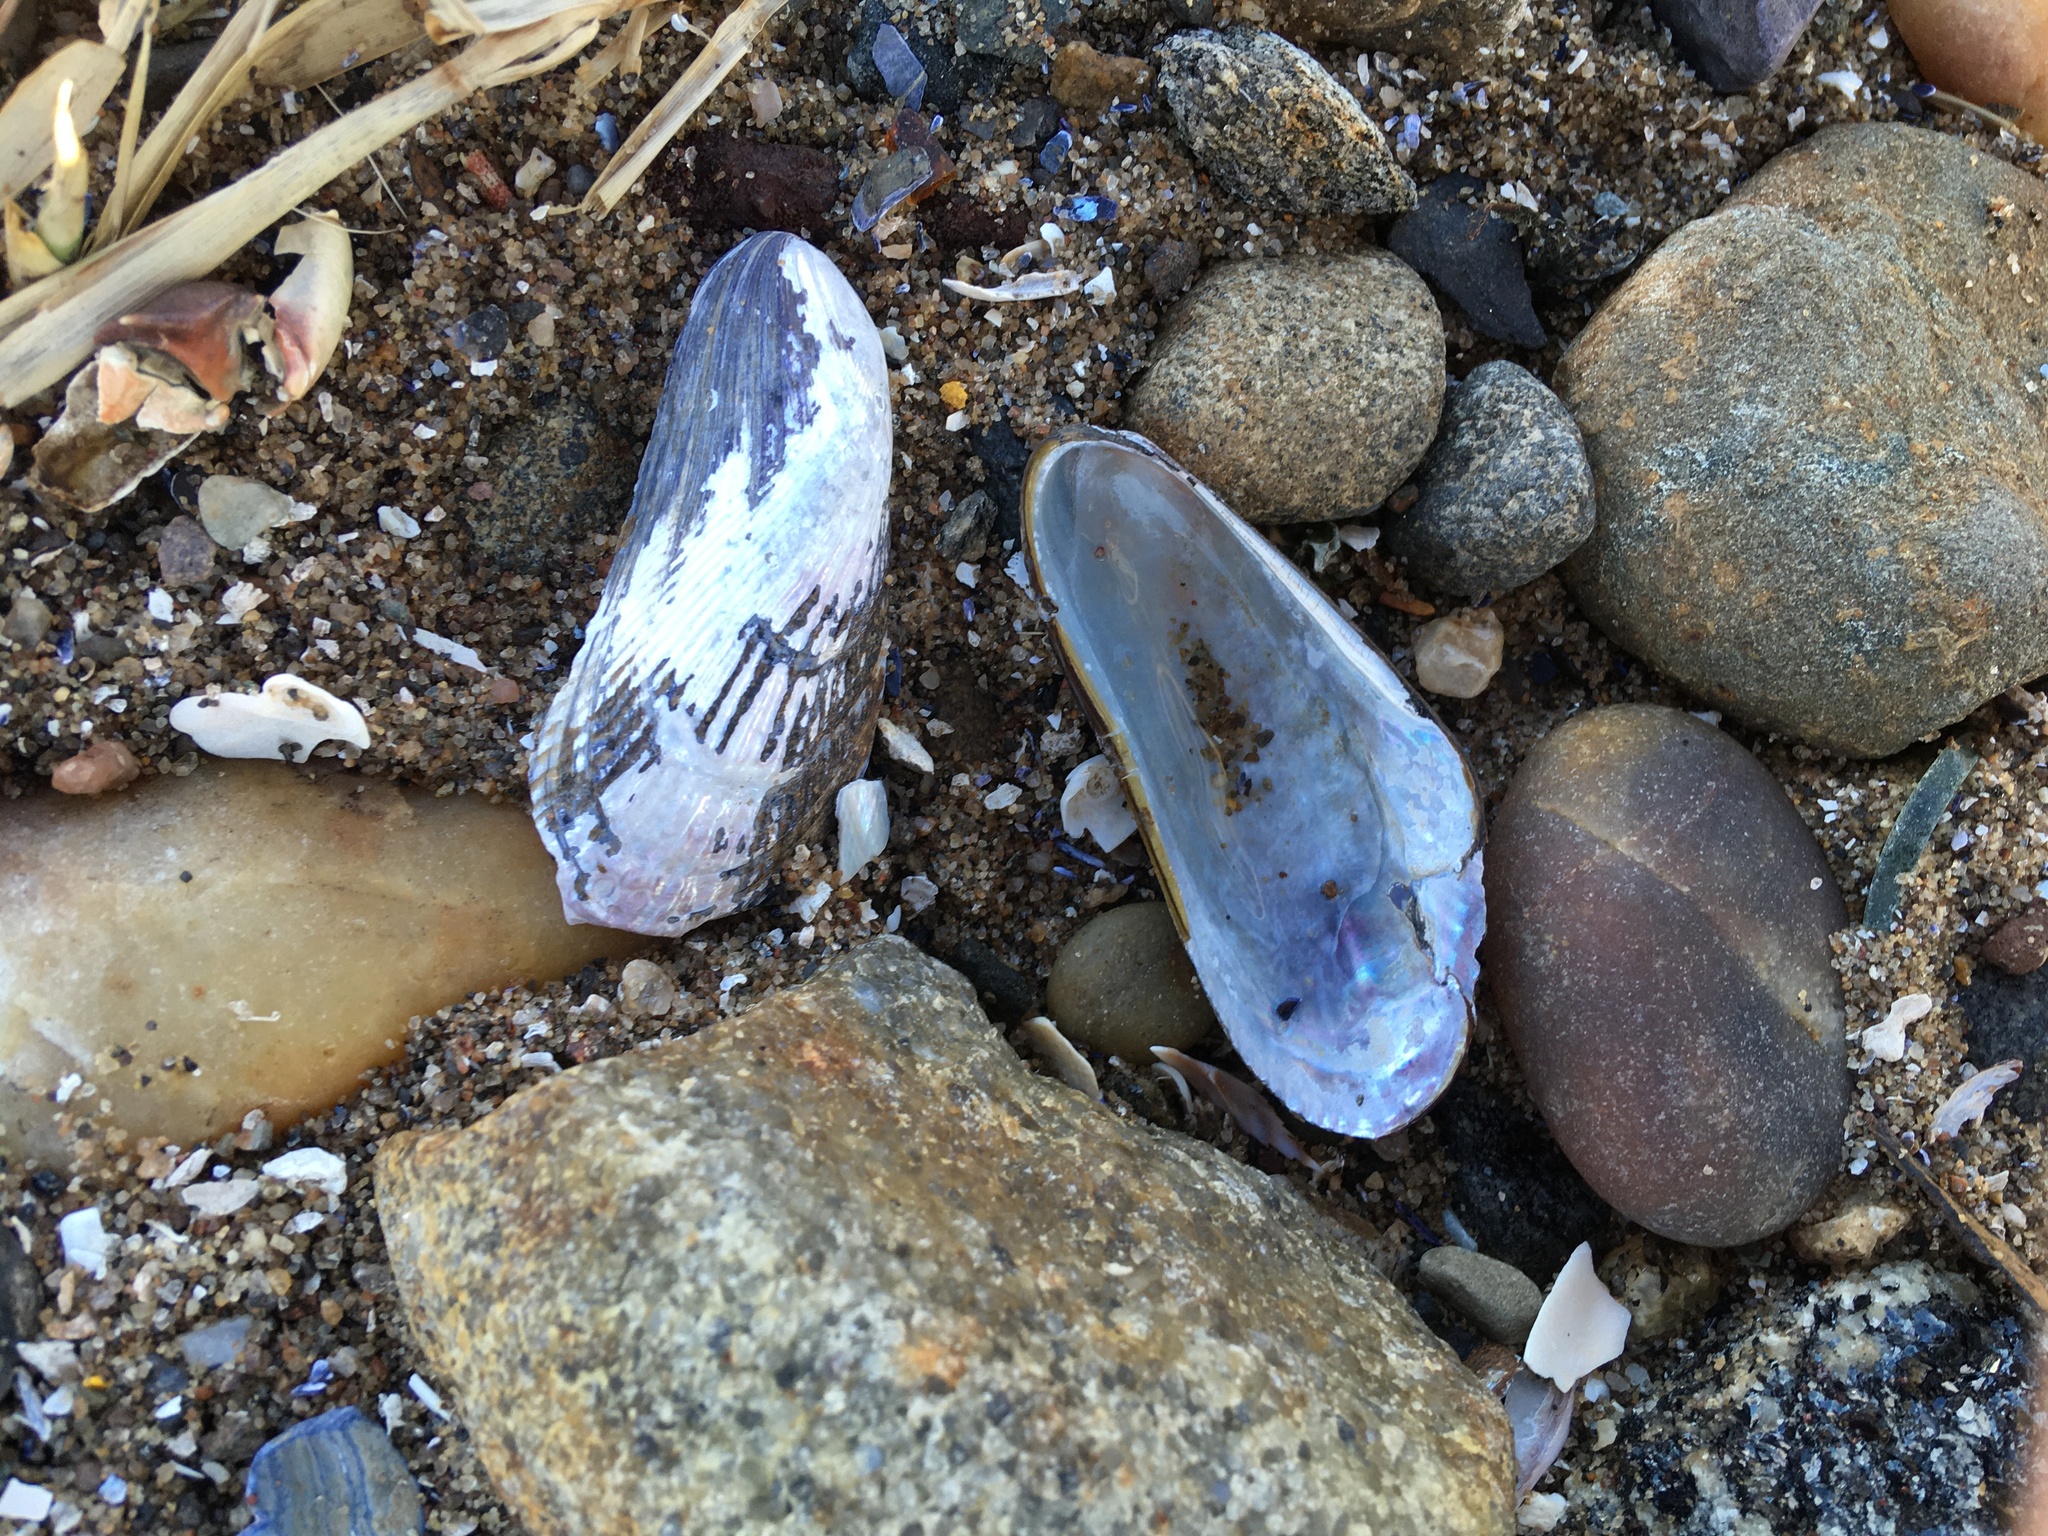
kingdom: Animalia
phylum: Mollusca
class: Bivalvia
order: Mytilida
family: Mytilidae
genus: Geukensia
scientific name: Geukensia demissa
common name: Ribbed mussel
